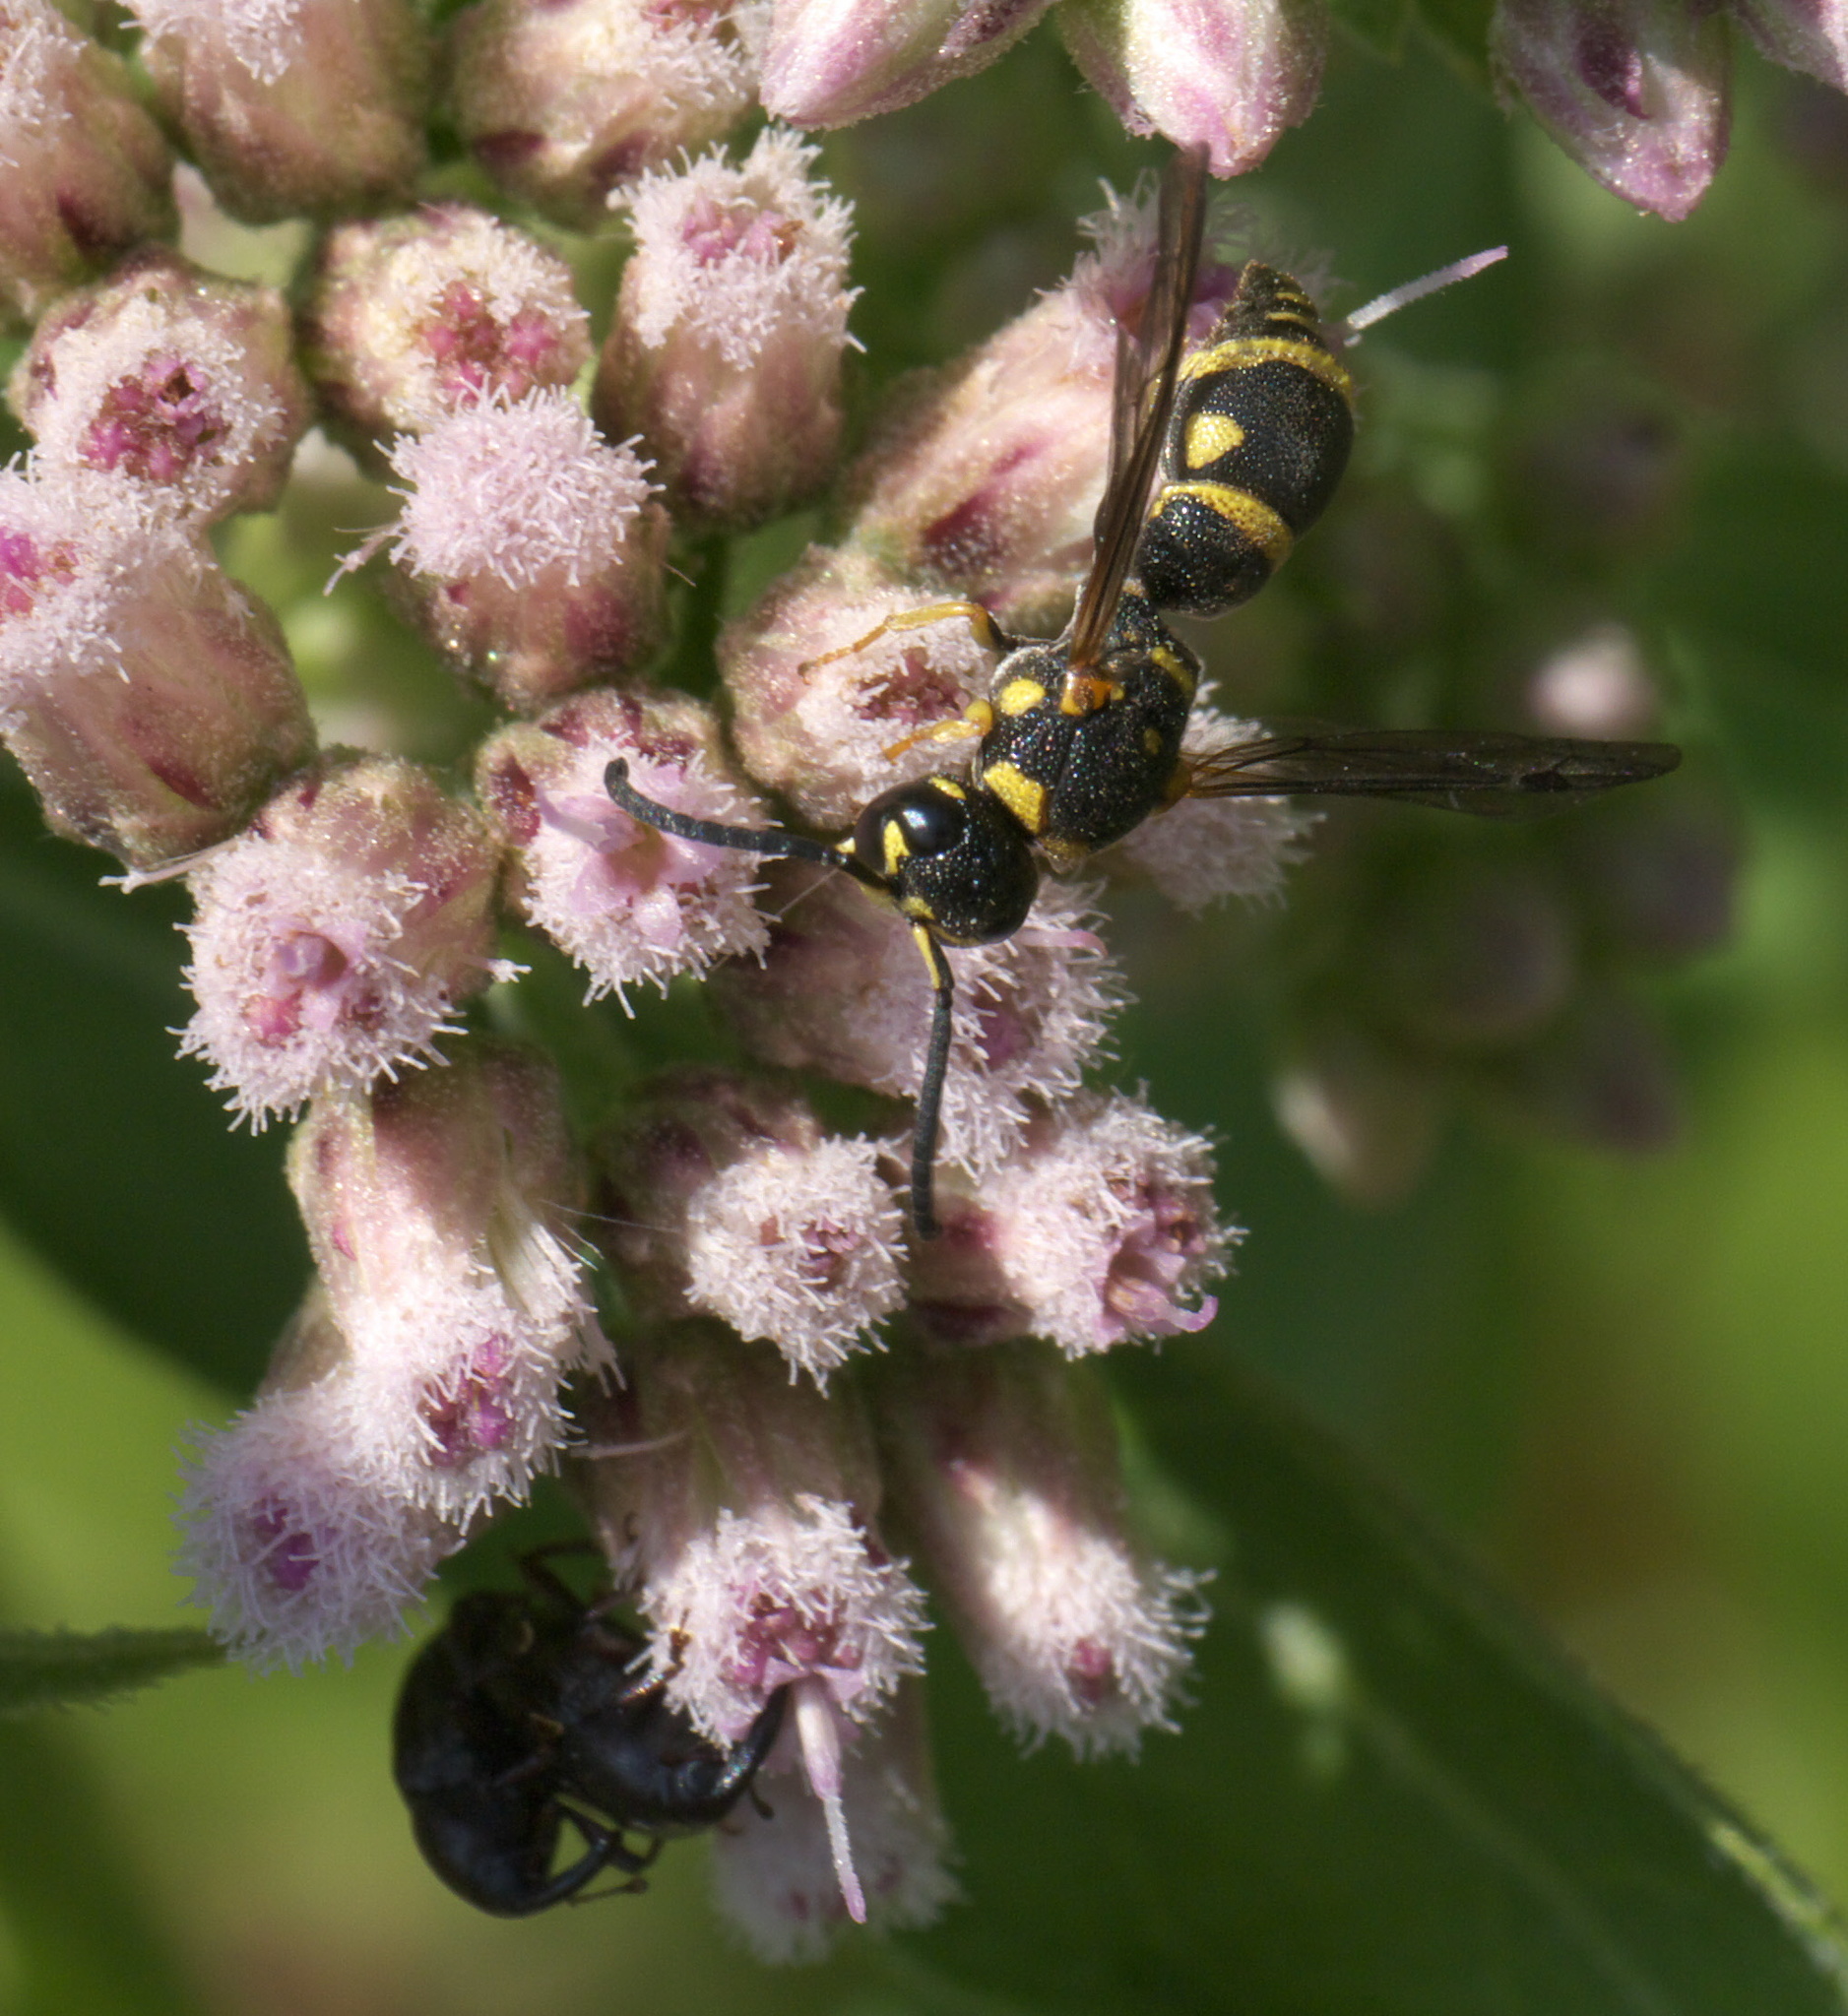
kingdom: Animalia
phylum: Arthropoda
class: Insecta
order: Hymenoptera
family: Eumenidae
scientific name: Eumenidae
